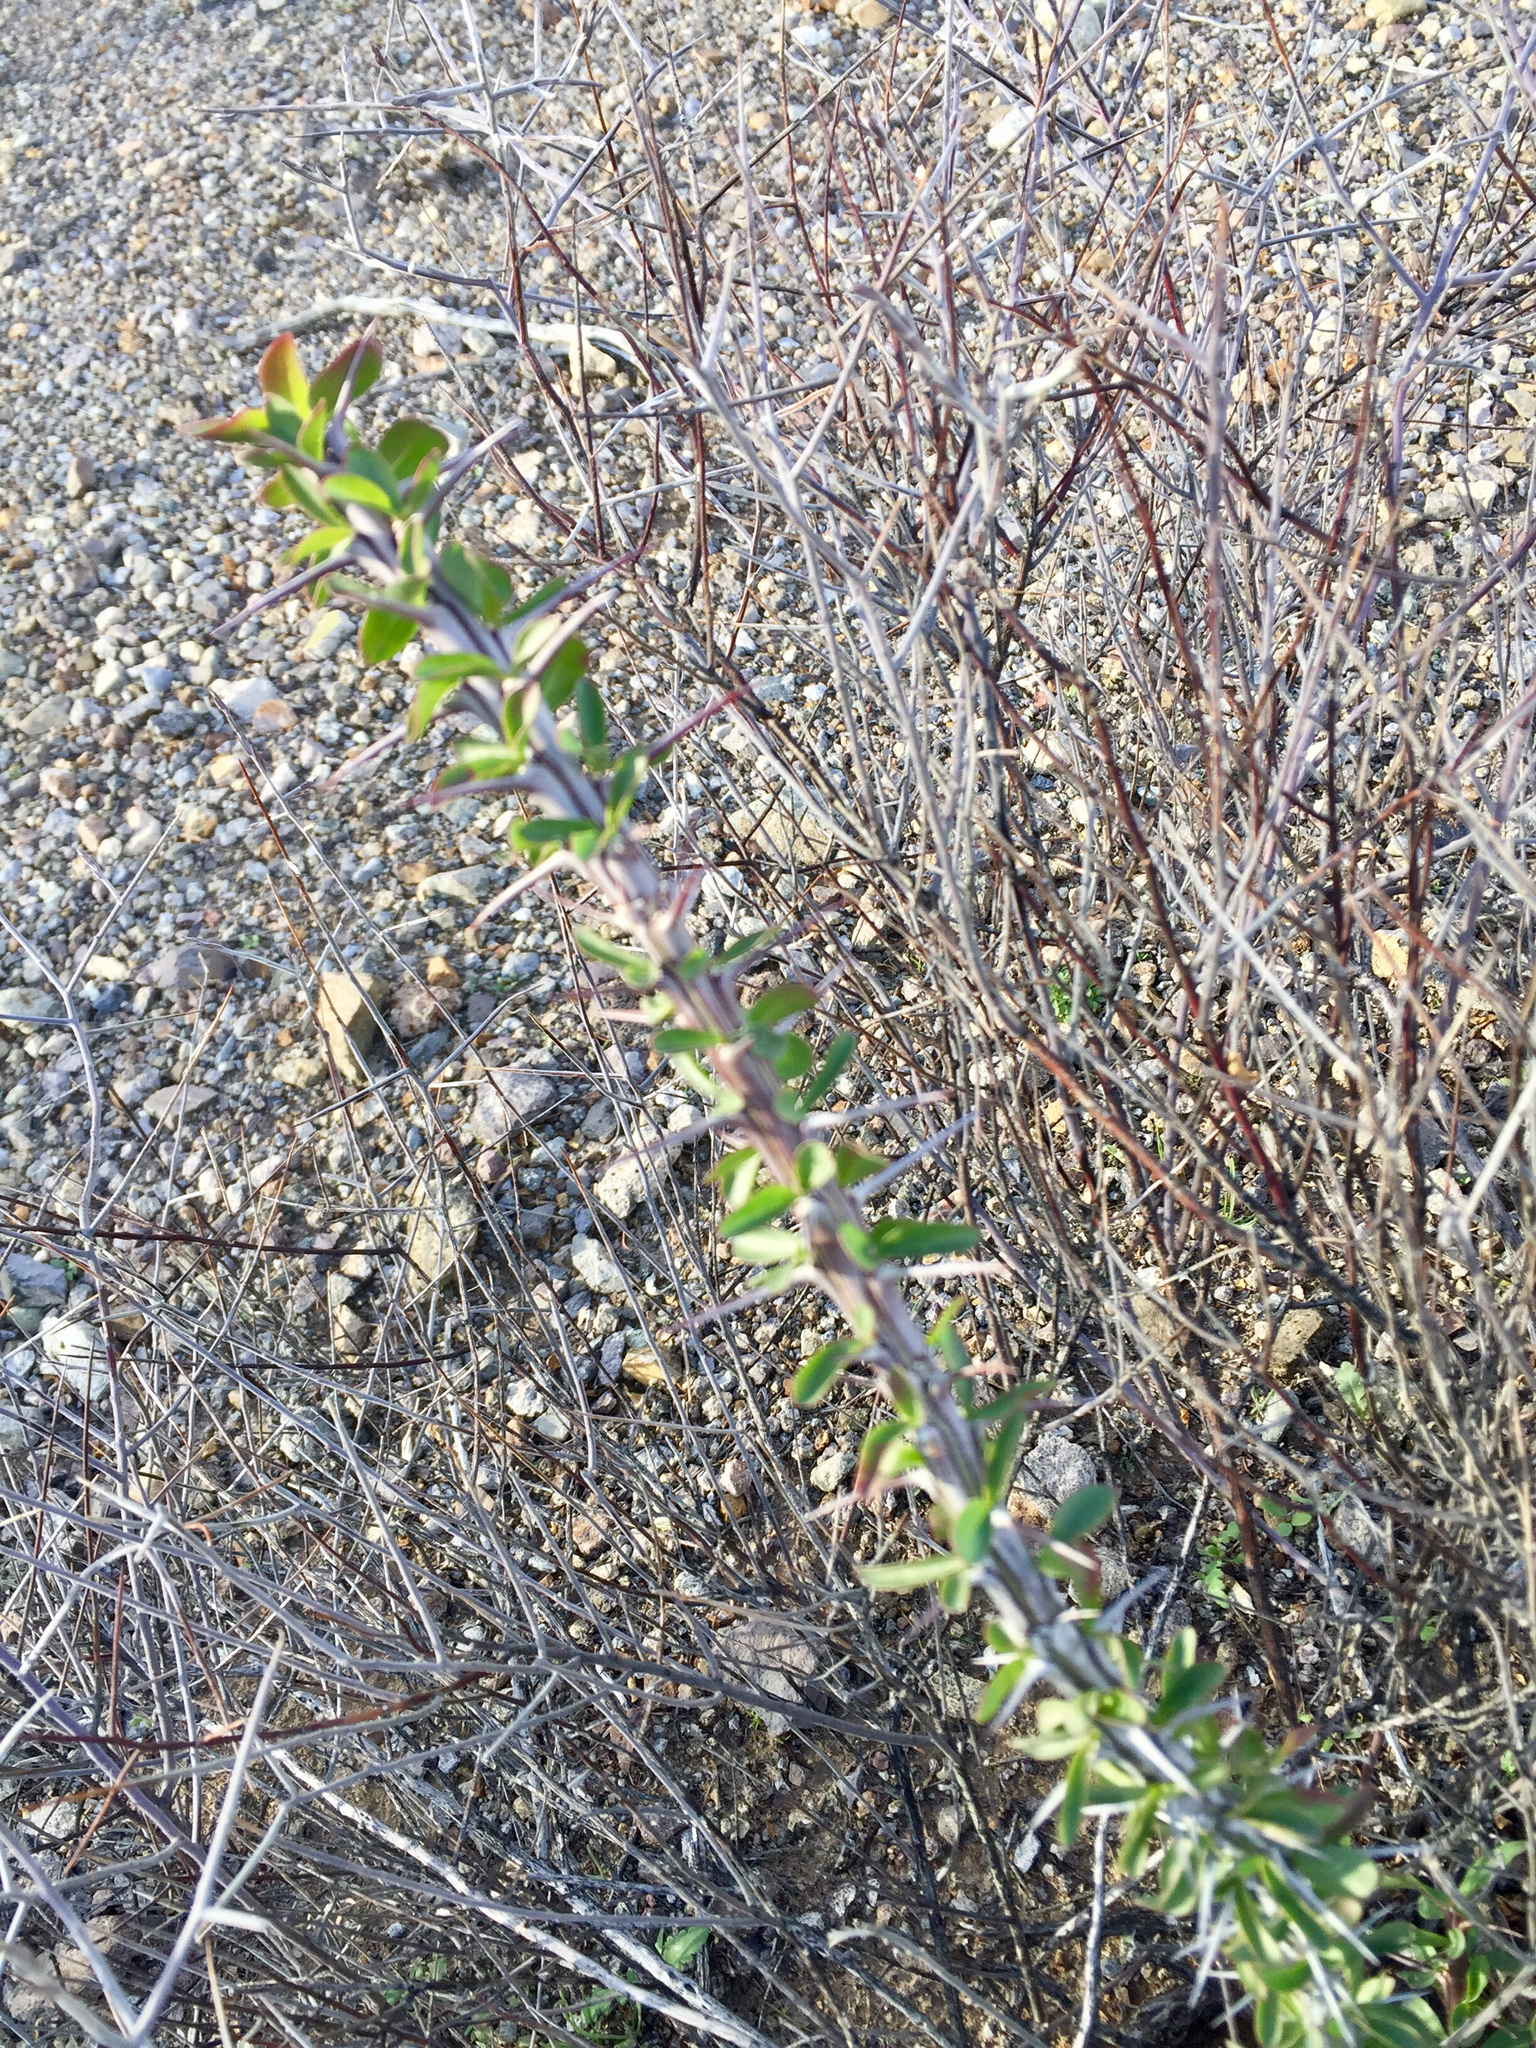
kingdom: Plantae
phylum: Tracheophyta
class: Magnoliopsida
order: Ericales
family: Fouquieriaceae
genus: Fouquieria
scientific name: Fouquieria splendens
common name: Vine-cactus
